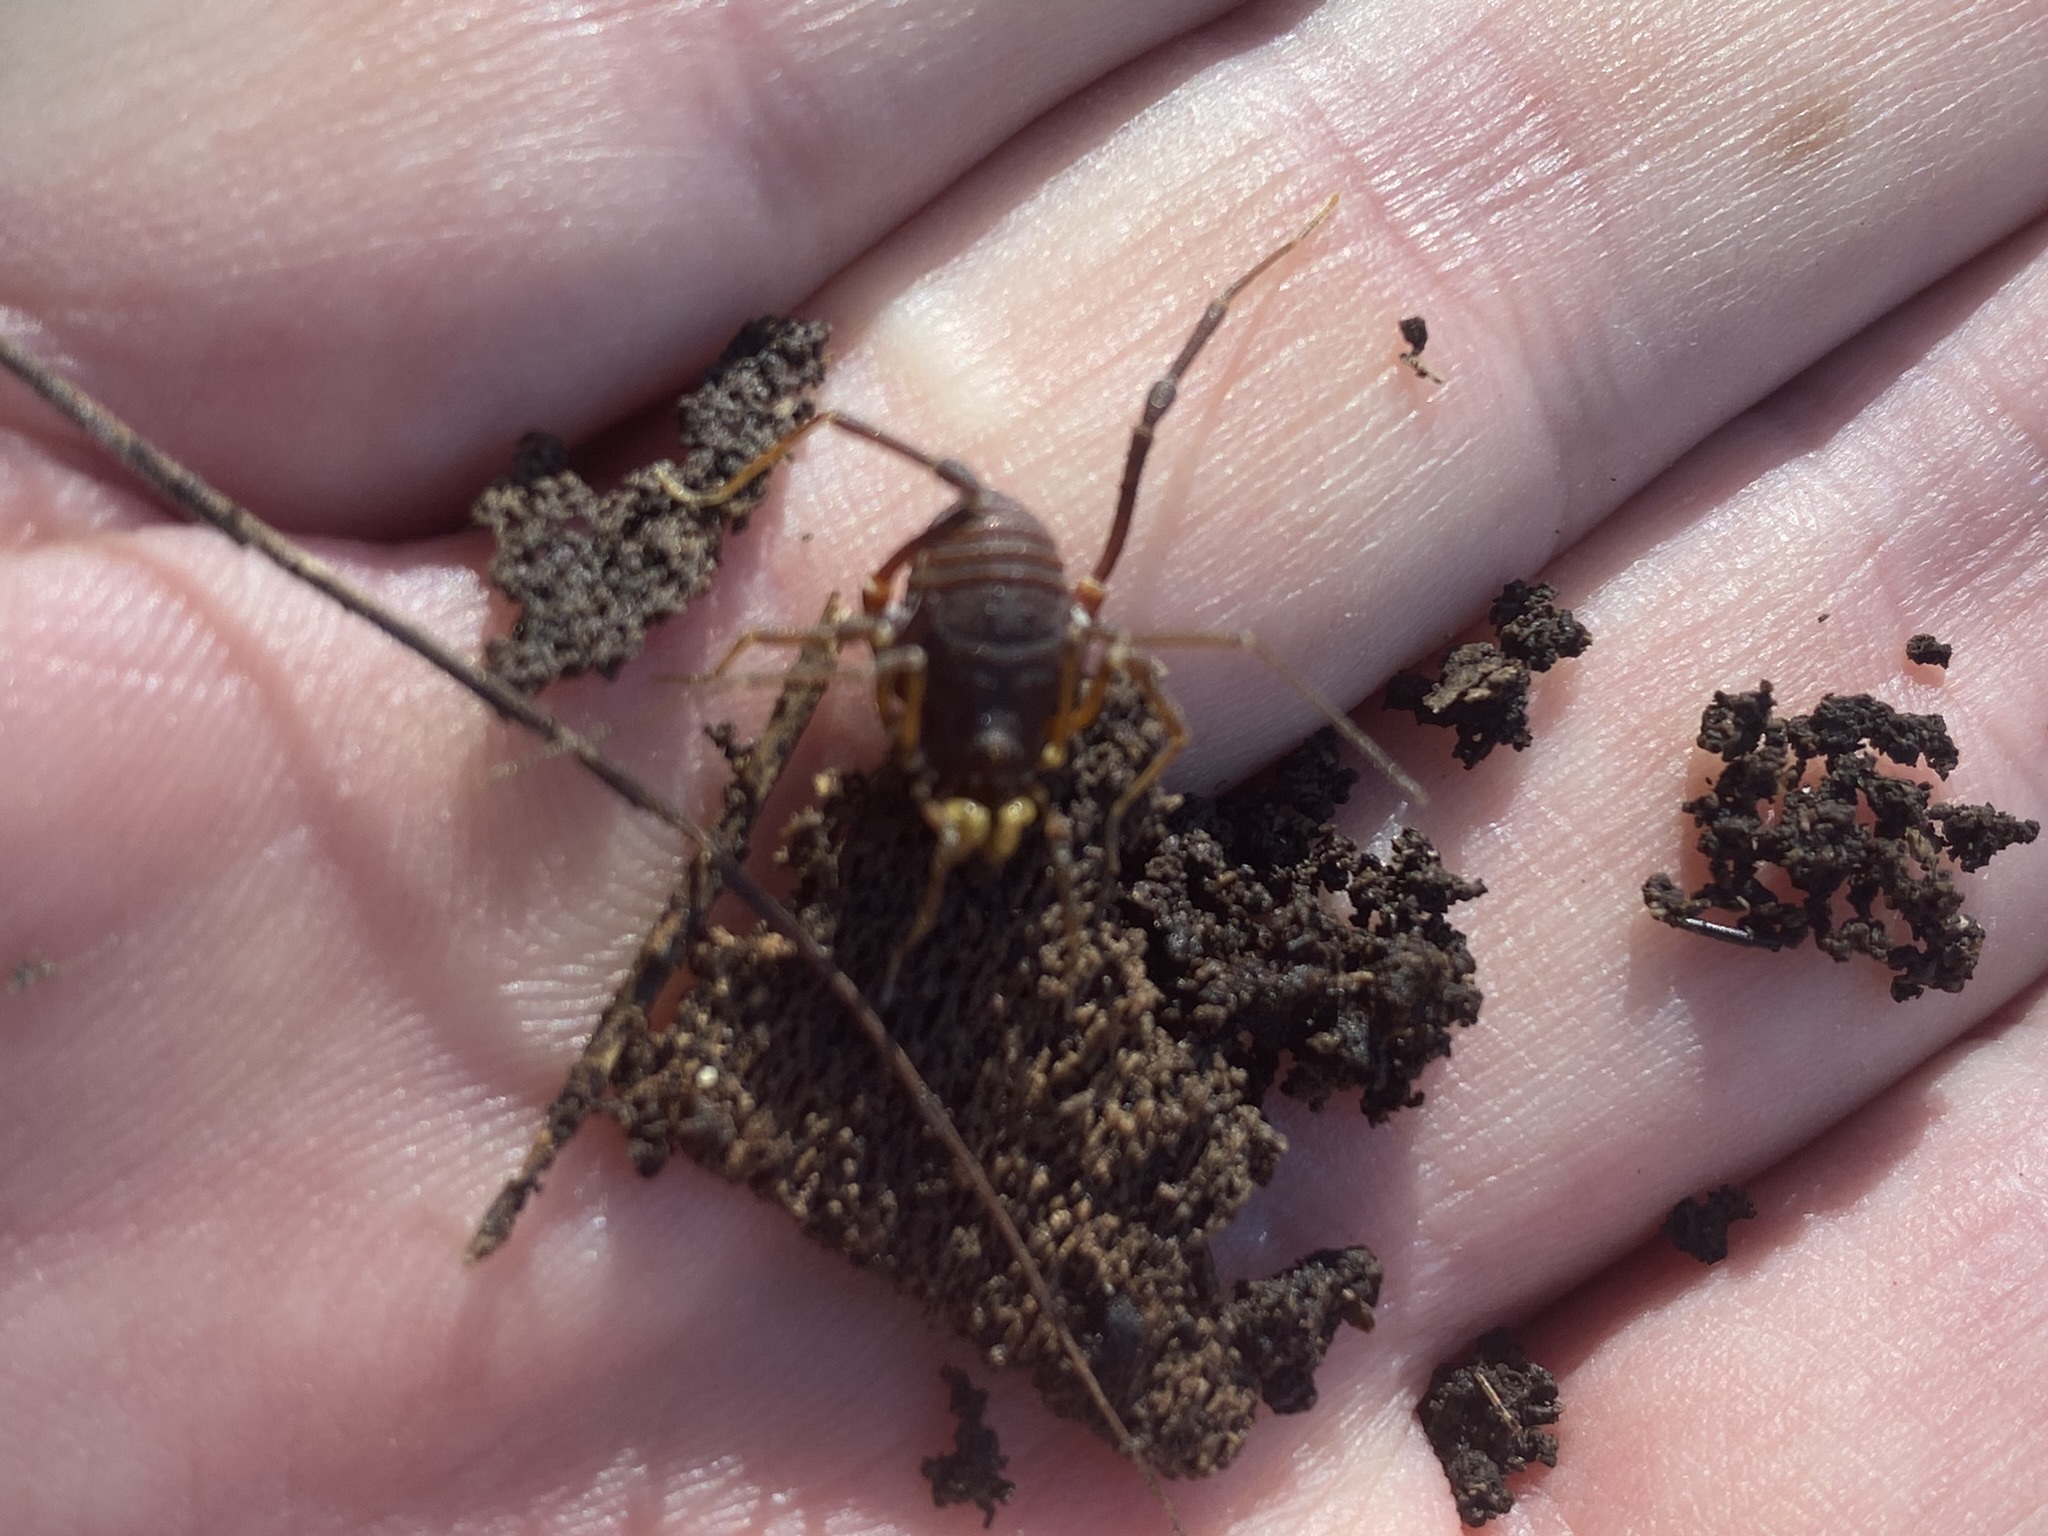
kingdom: Animalia
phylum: Arthropoda
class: Arachnida
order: Opiliones
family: Gonyleptidae
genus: Opisthoplatus
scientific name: Opisthoplatus prospicuus
